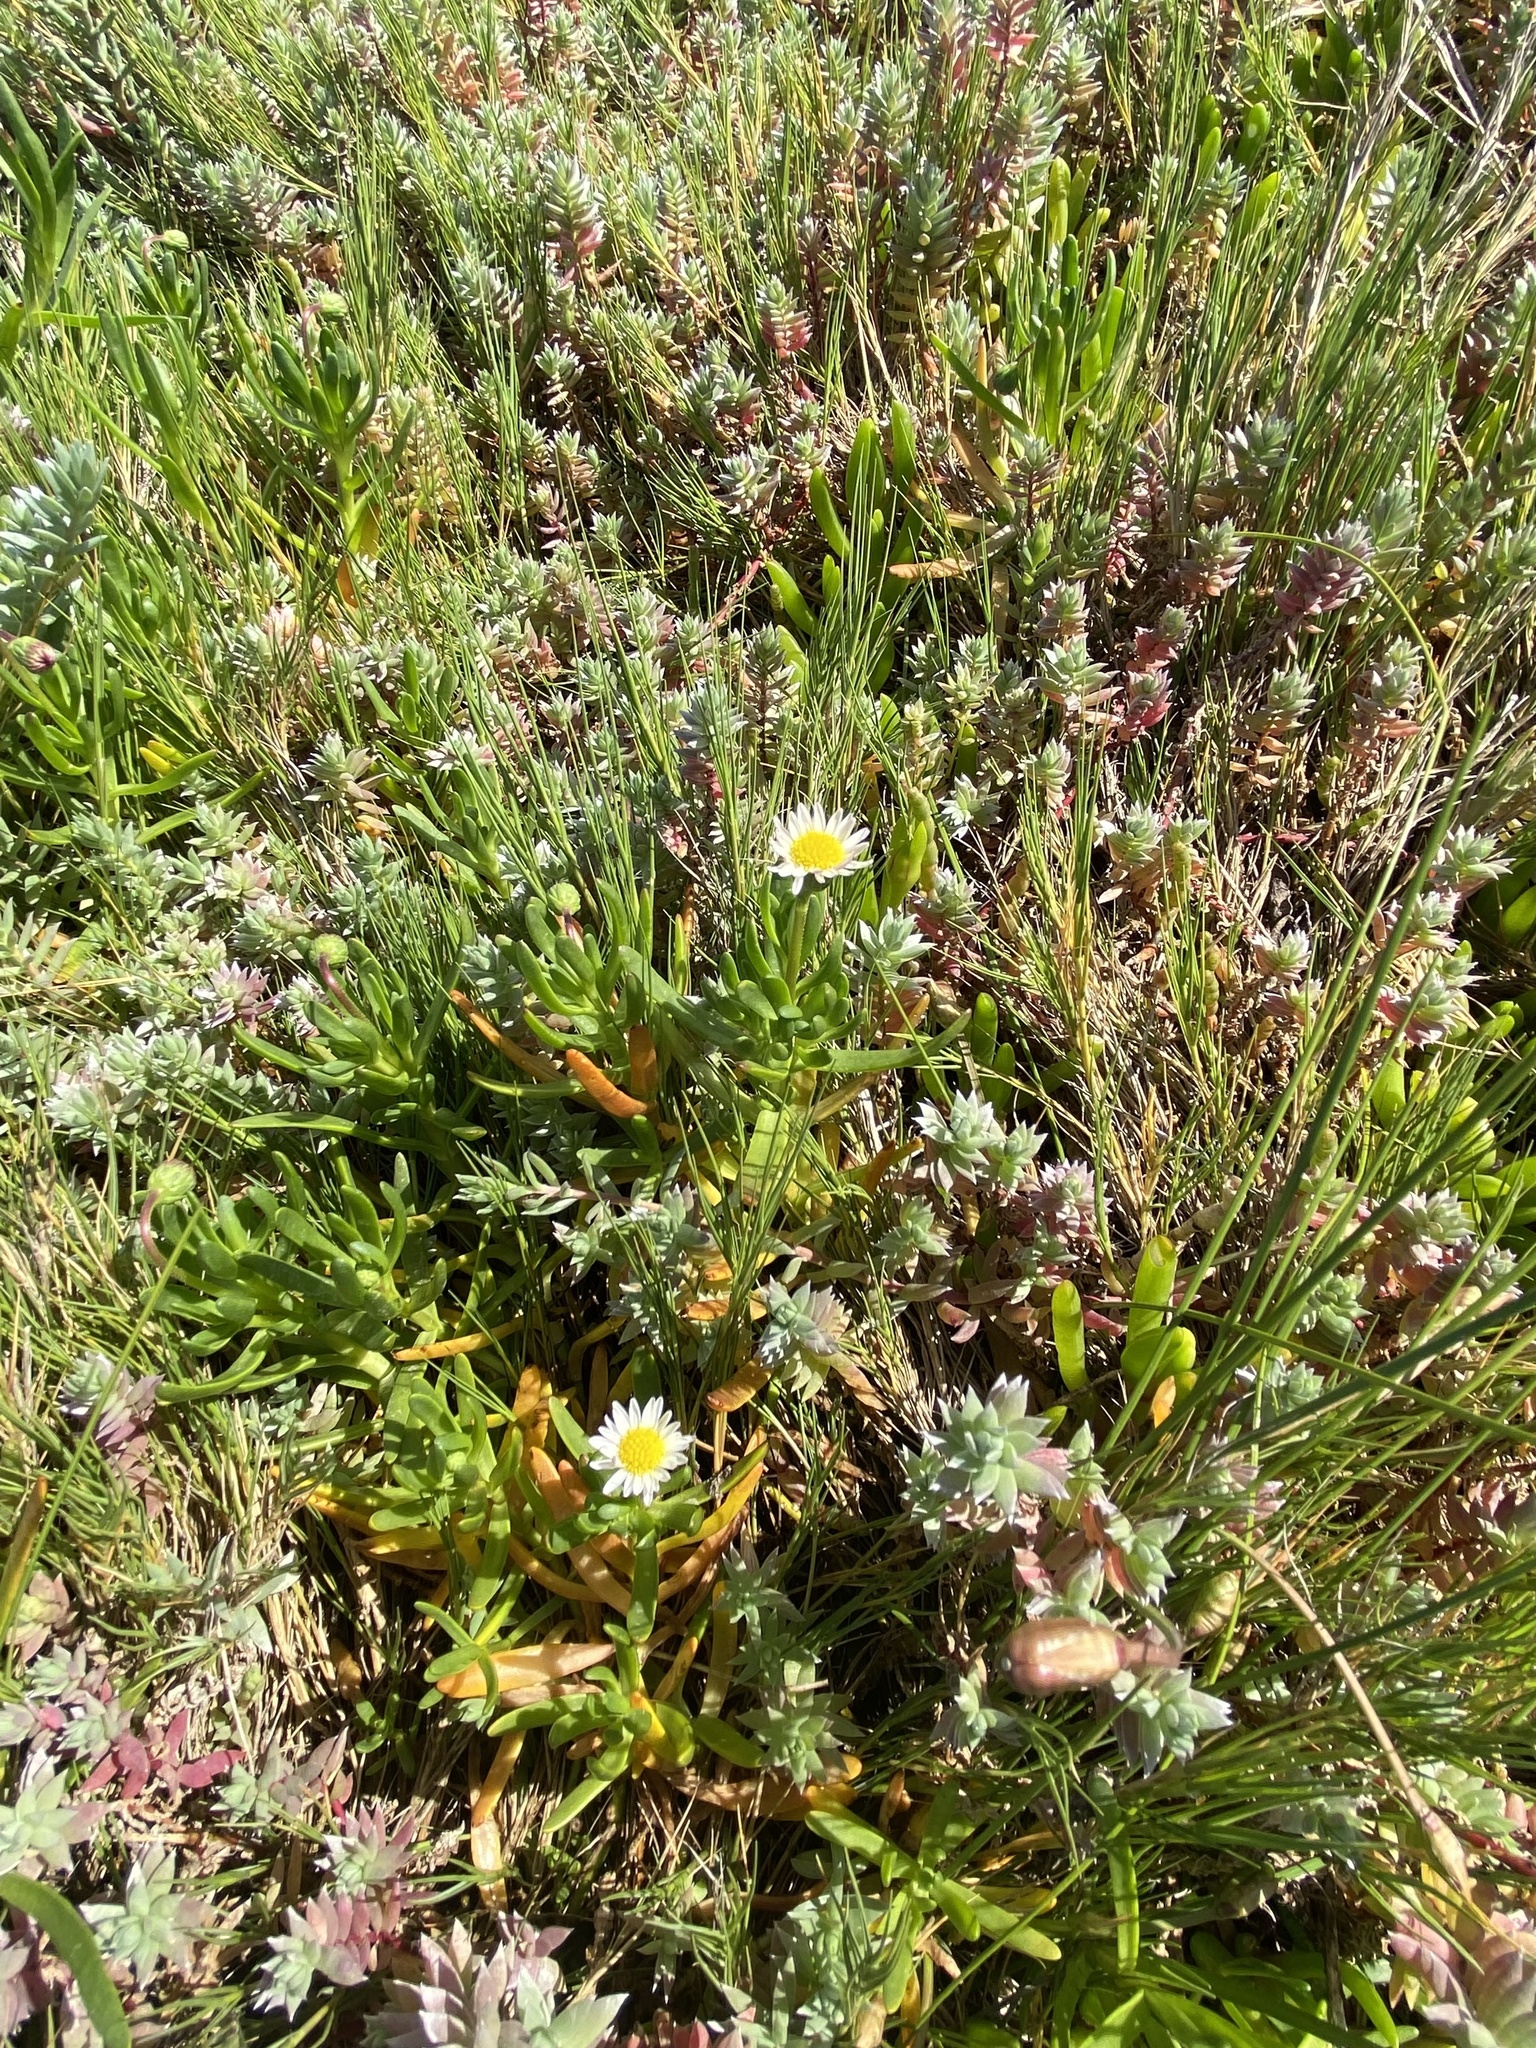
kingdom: Plantae
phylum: Tracheophyta
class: Magnoliopsida
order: Asterales
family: Asteraceae
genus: Poecilolepis
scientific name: Poecilolepis ficoidea
